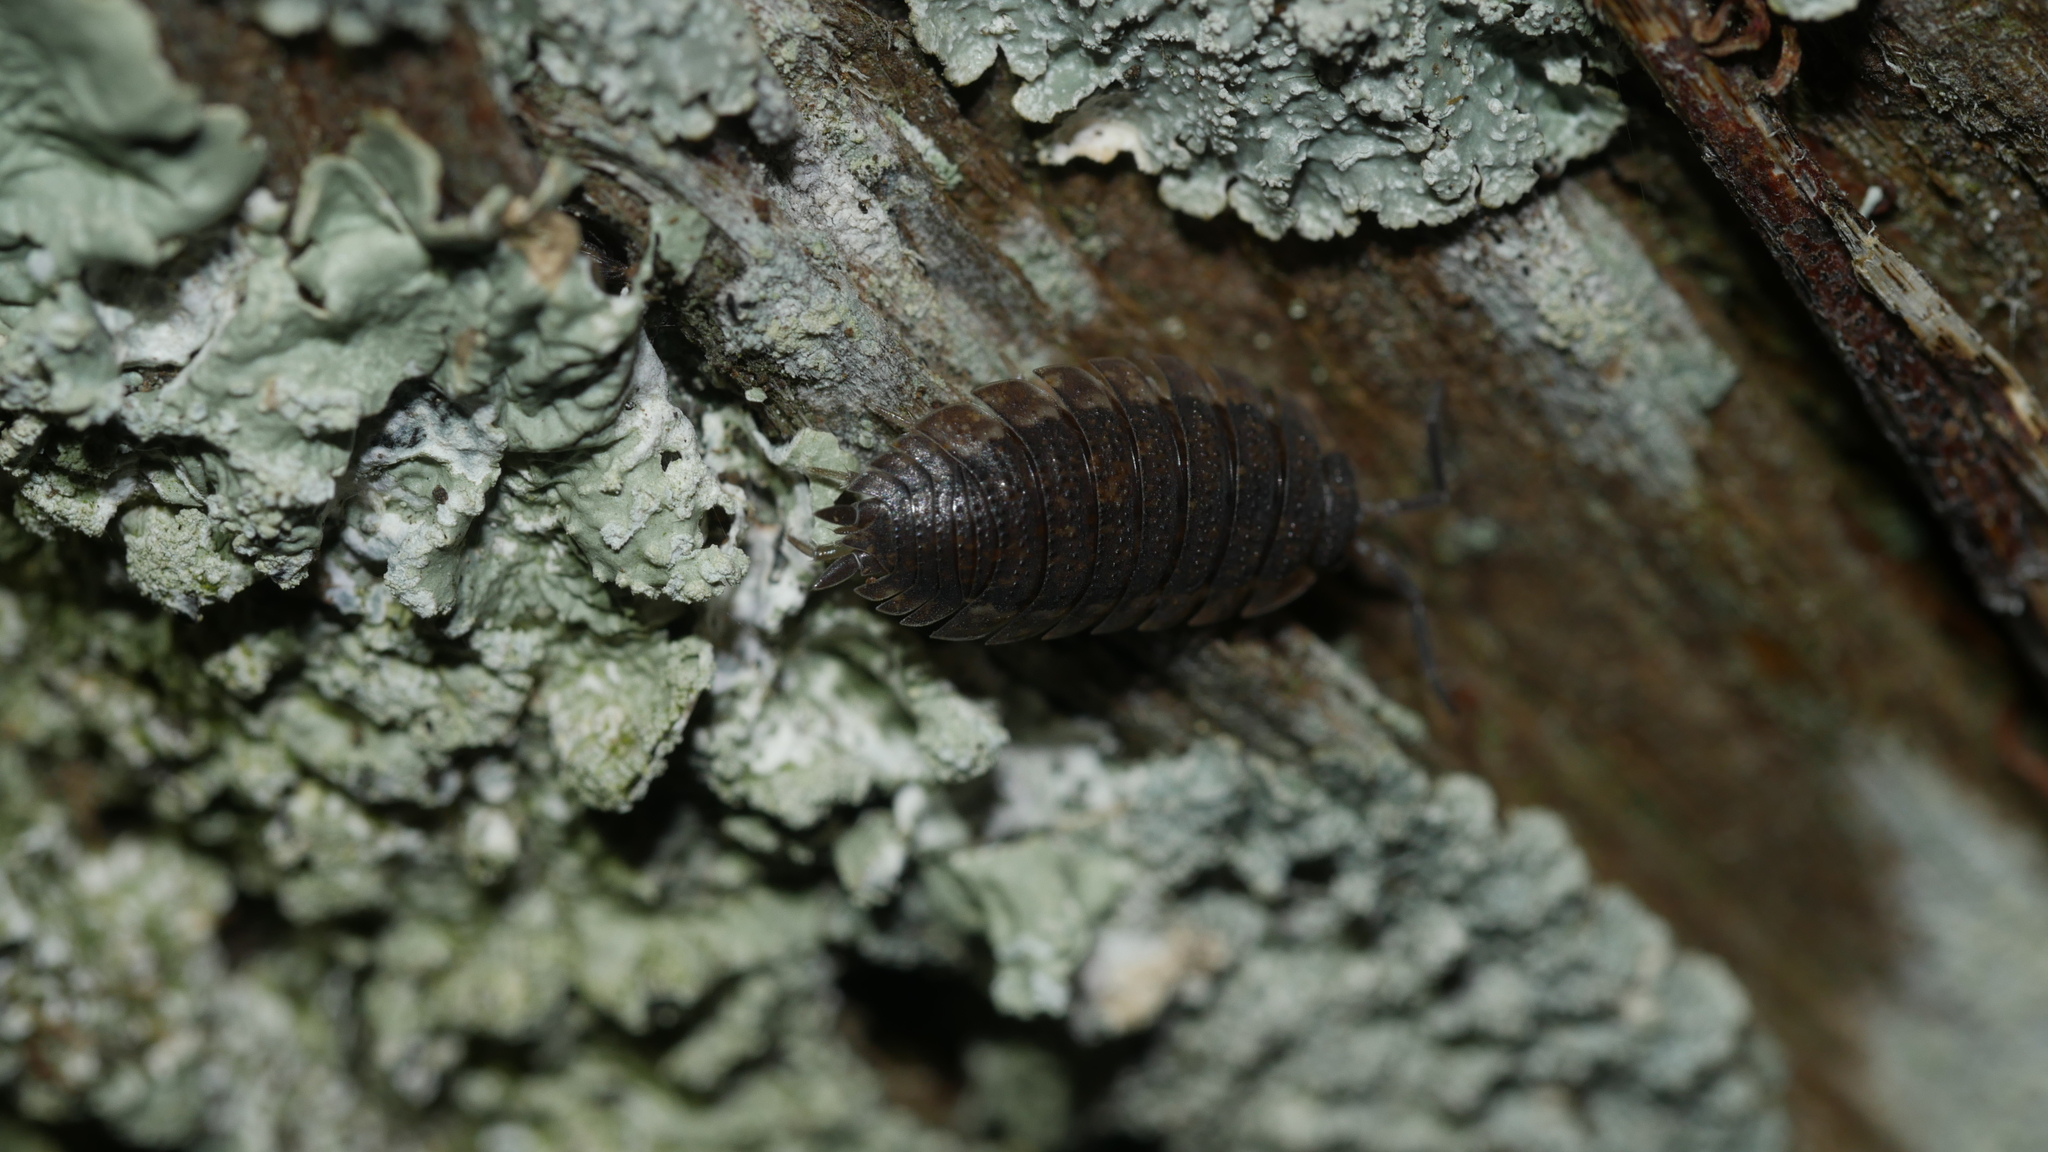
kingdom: Animalia
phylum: Arthropoda
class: Malacostraca
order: Isopoda
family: Porcellionidae
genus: Porcellio
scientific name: Porcellio scaber
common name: Common rough woodlouse
